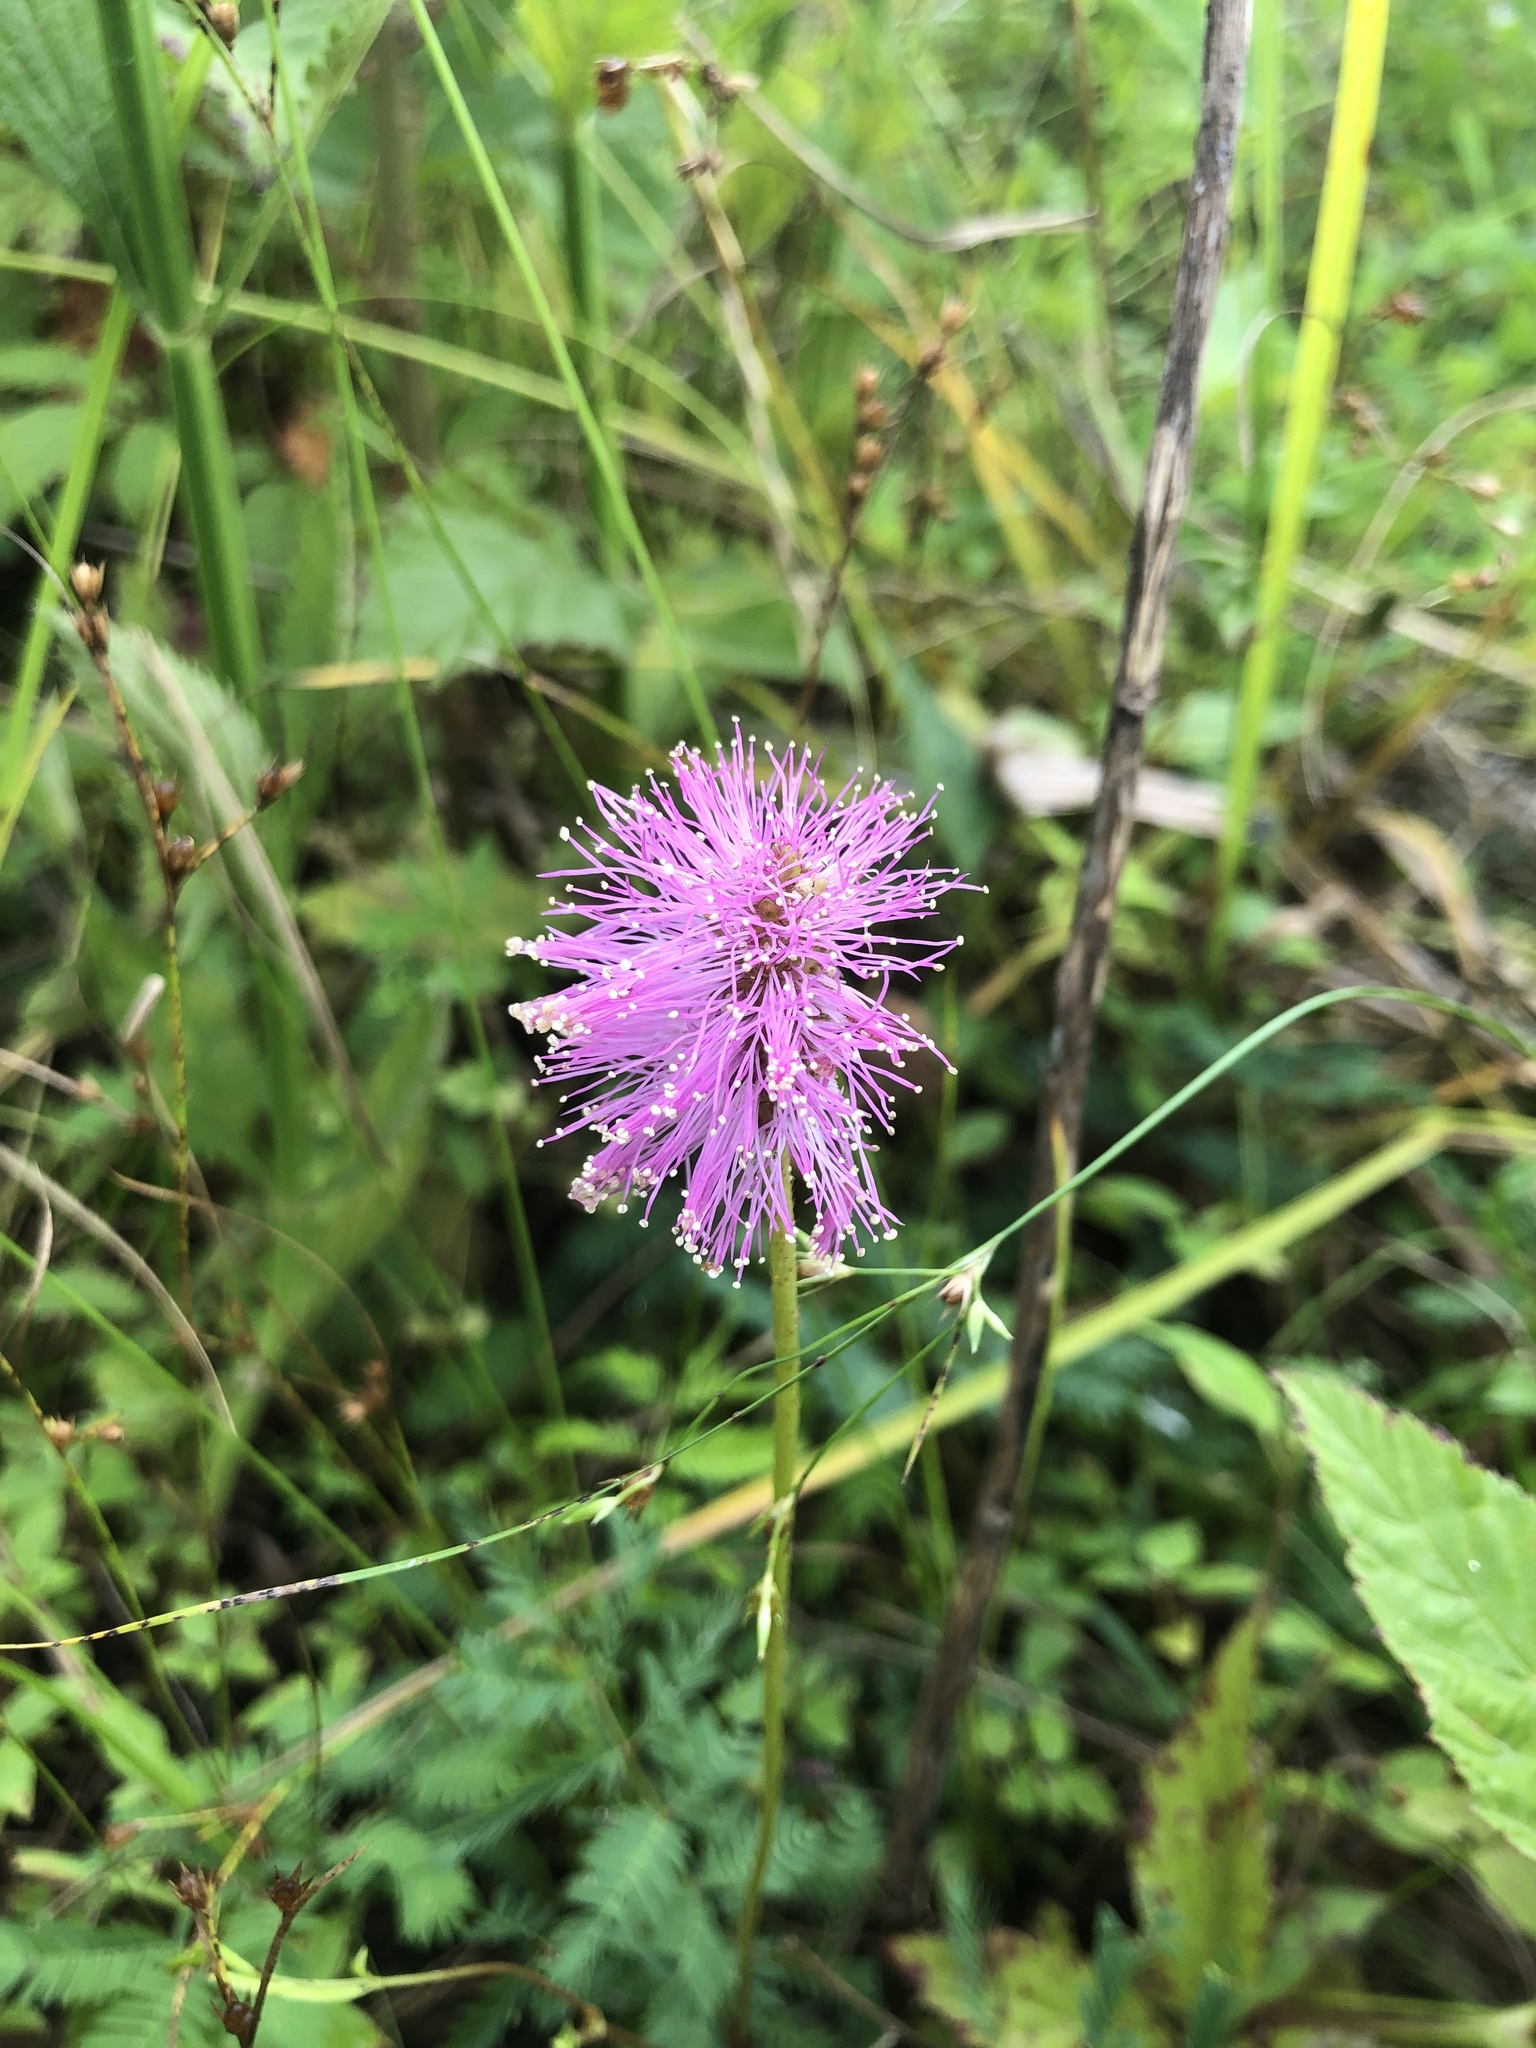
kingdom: Plantae
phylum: Tracheophyta
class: Magnoliopsida
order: Fabales
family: Fabaceae
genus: Mimosa
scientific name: Mimosa strigillosa
